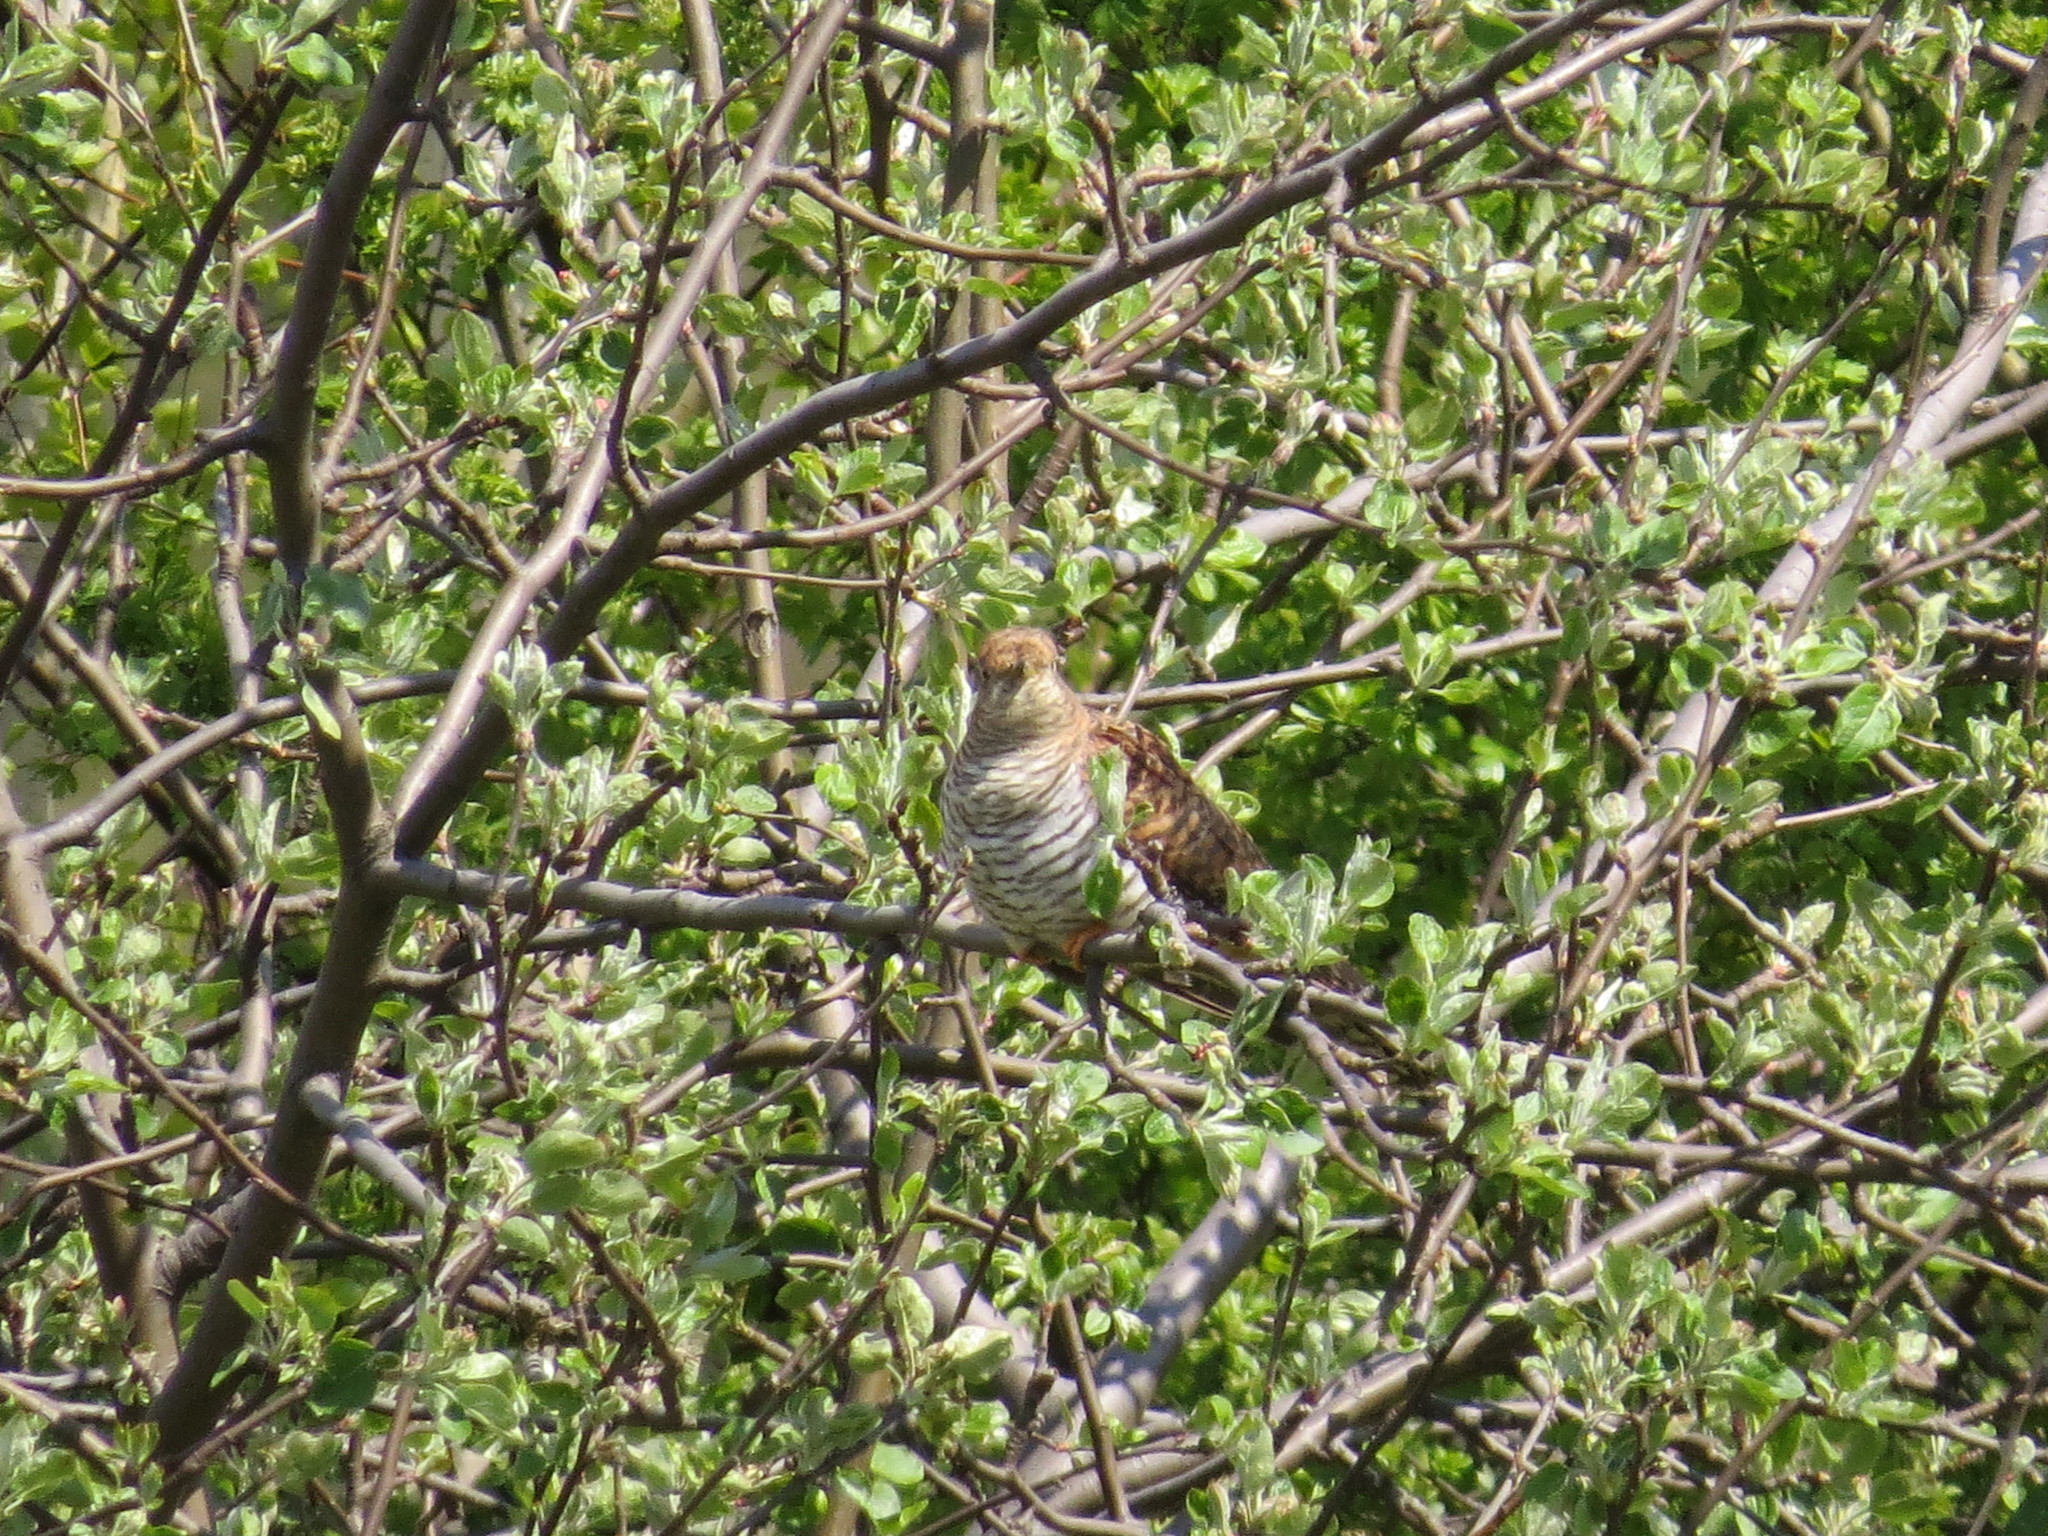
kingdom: Animalia
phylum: Chordata
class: Aves
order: Cuculiformes
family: Cuculidae
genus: Cuculus
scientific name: Cuculus canorus
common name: Common cuckoo
